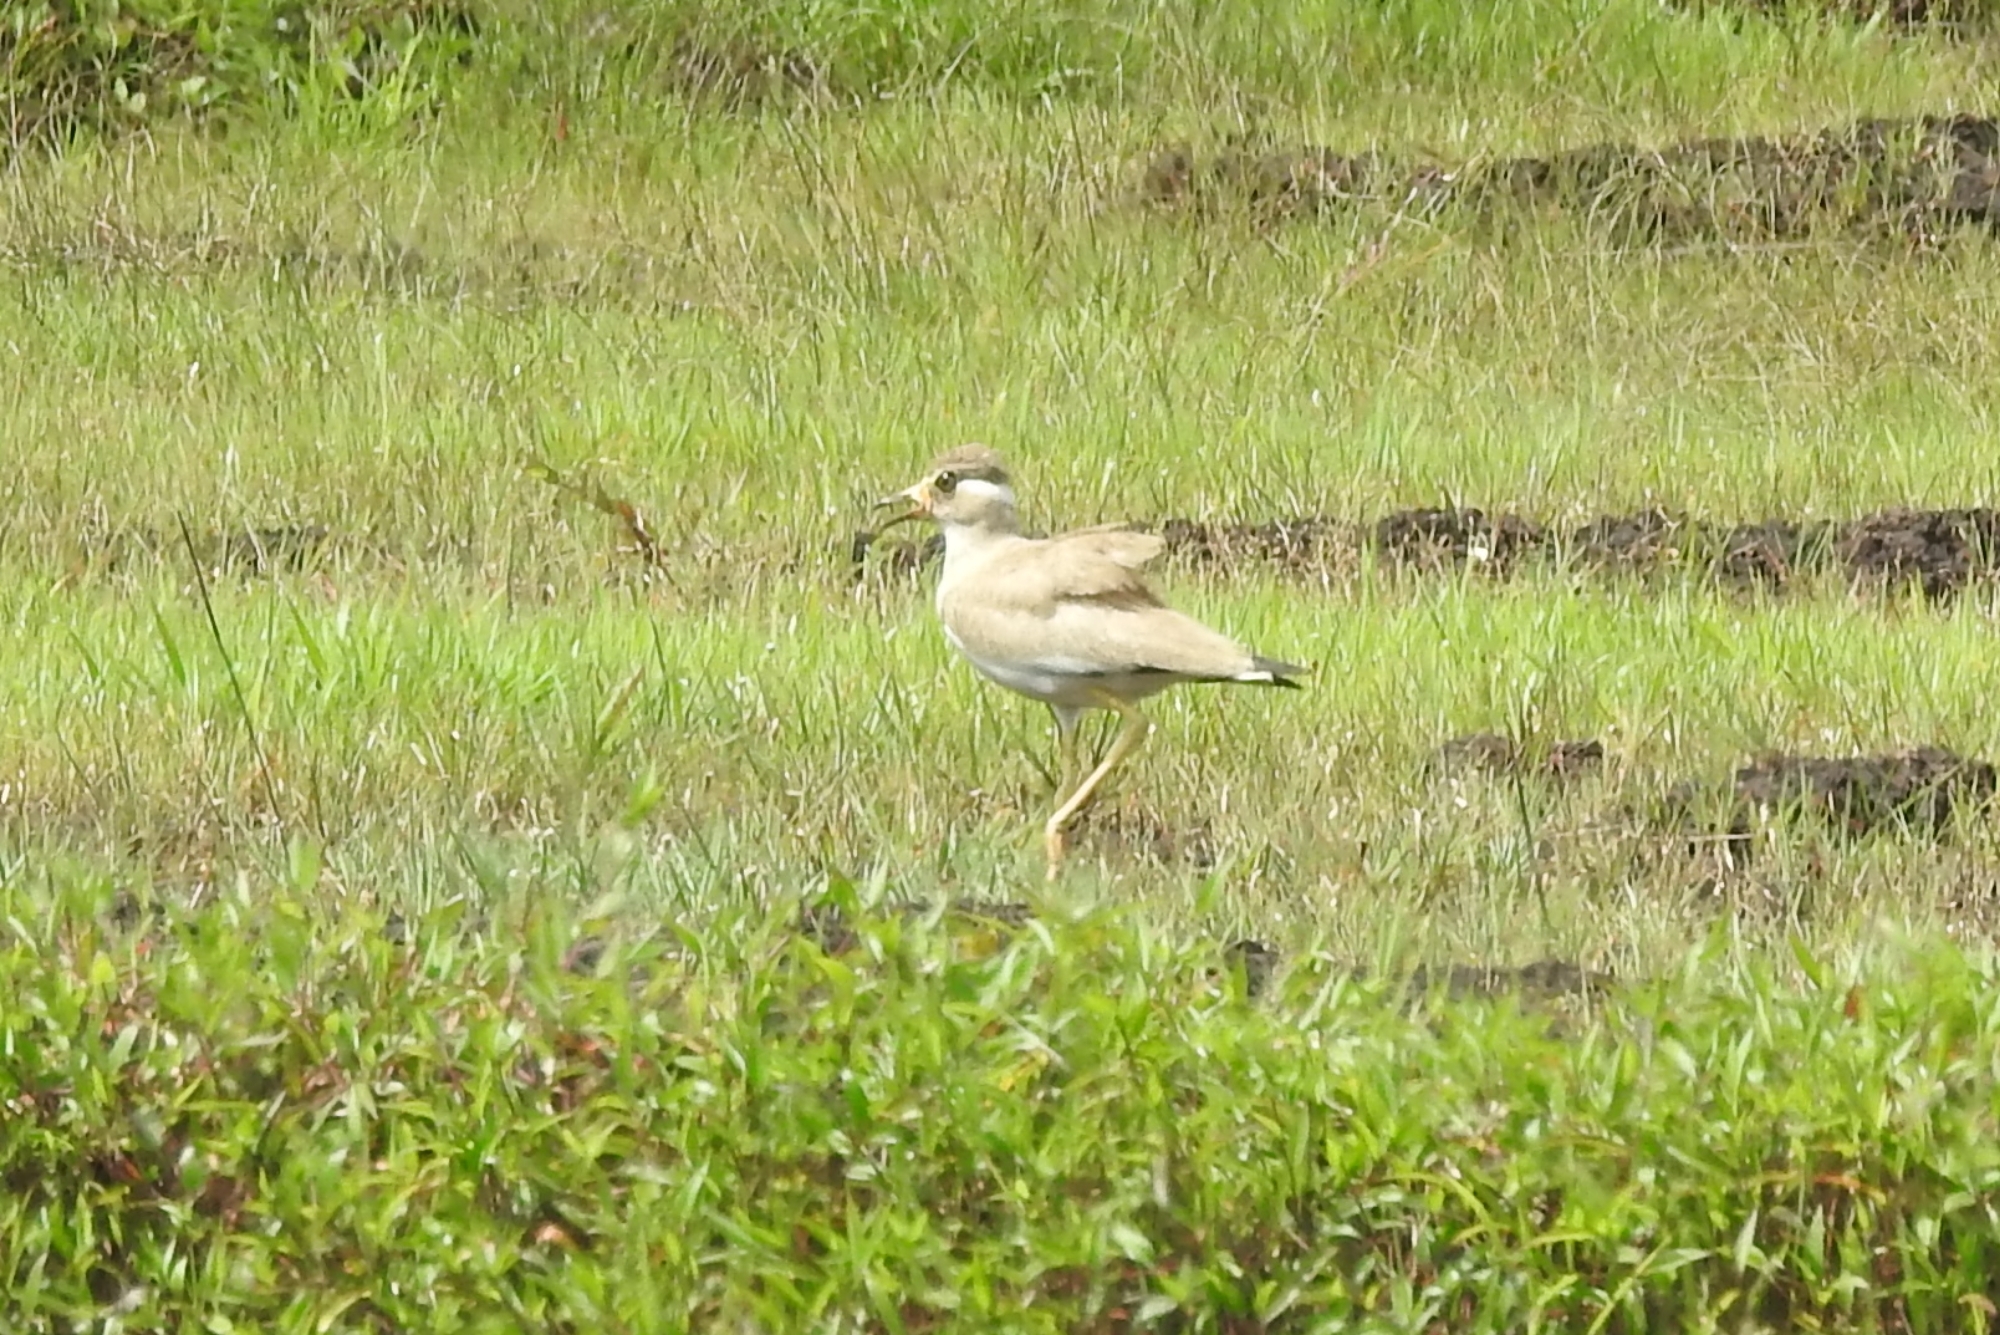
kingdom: Animalia
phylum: Chordata
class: Aves
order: Charadriiformes
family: Charadriidae
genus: Vanellus
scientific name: Vanellus malabaricus
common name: Yellow-wattled lapwing
